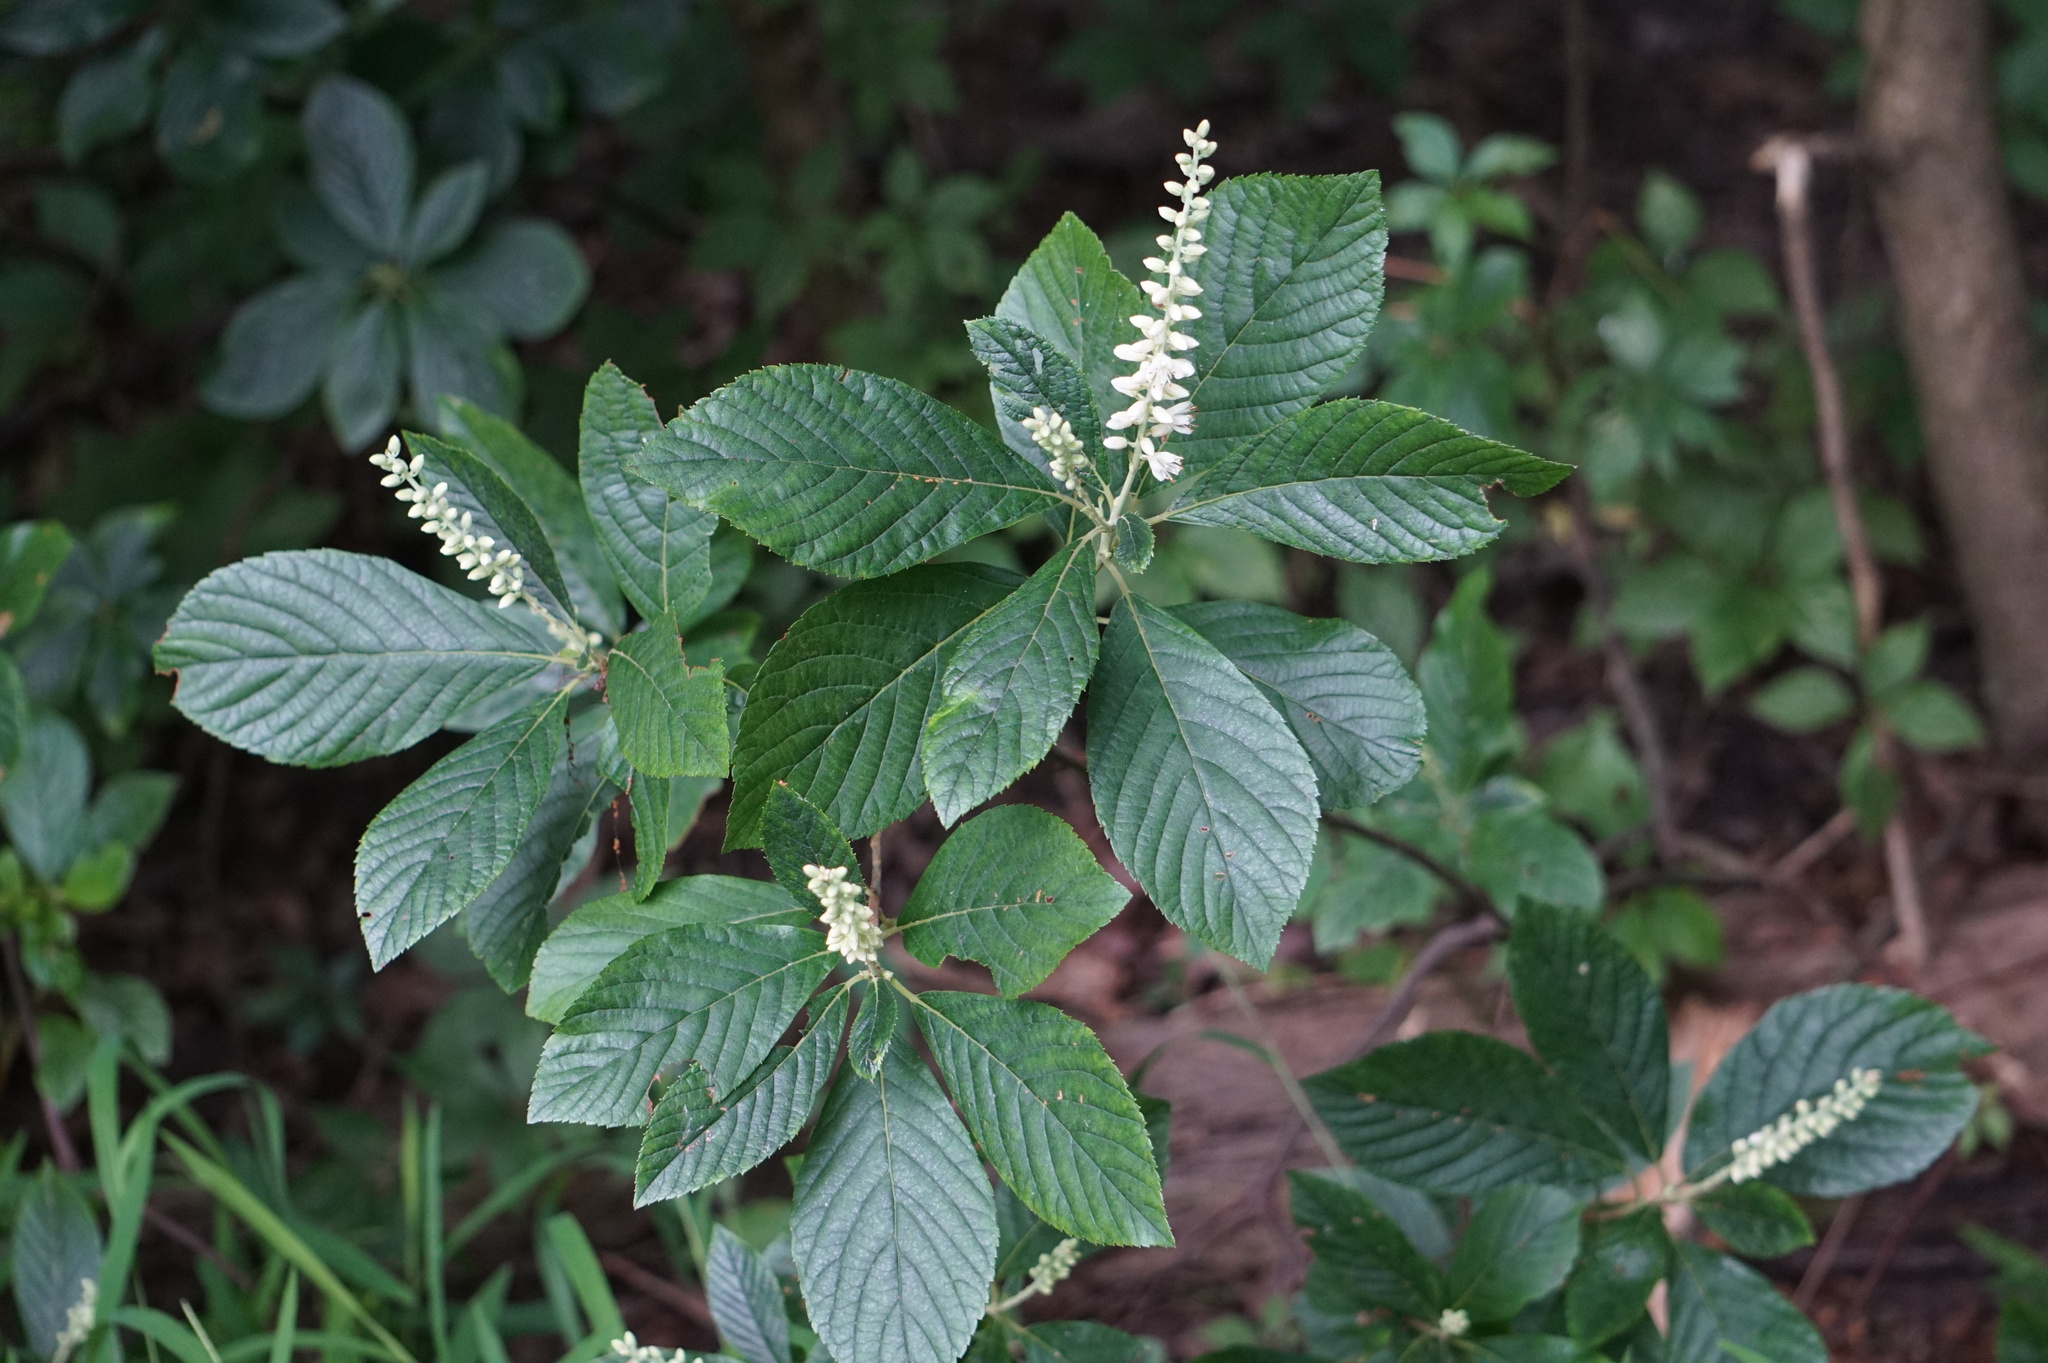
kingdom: Plantae
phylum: Tracheophyta
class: Magnoliopsida
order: Ericales
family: Clethraceae
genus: Clethra
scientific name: Clethra alnifolia
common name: Sweet pepperbush
